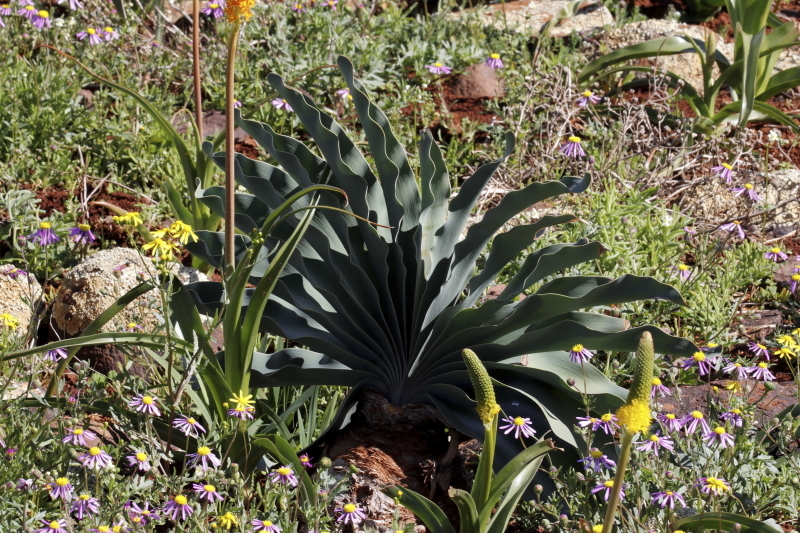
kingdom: Plantae
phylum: Tracheophyta
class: Liliopsida
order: Asparagales
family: Amaryllidaceae
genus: Boophone
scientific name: Boophone haemanthoides
